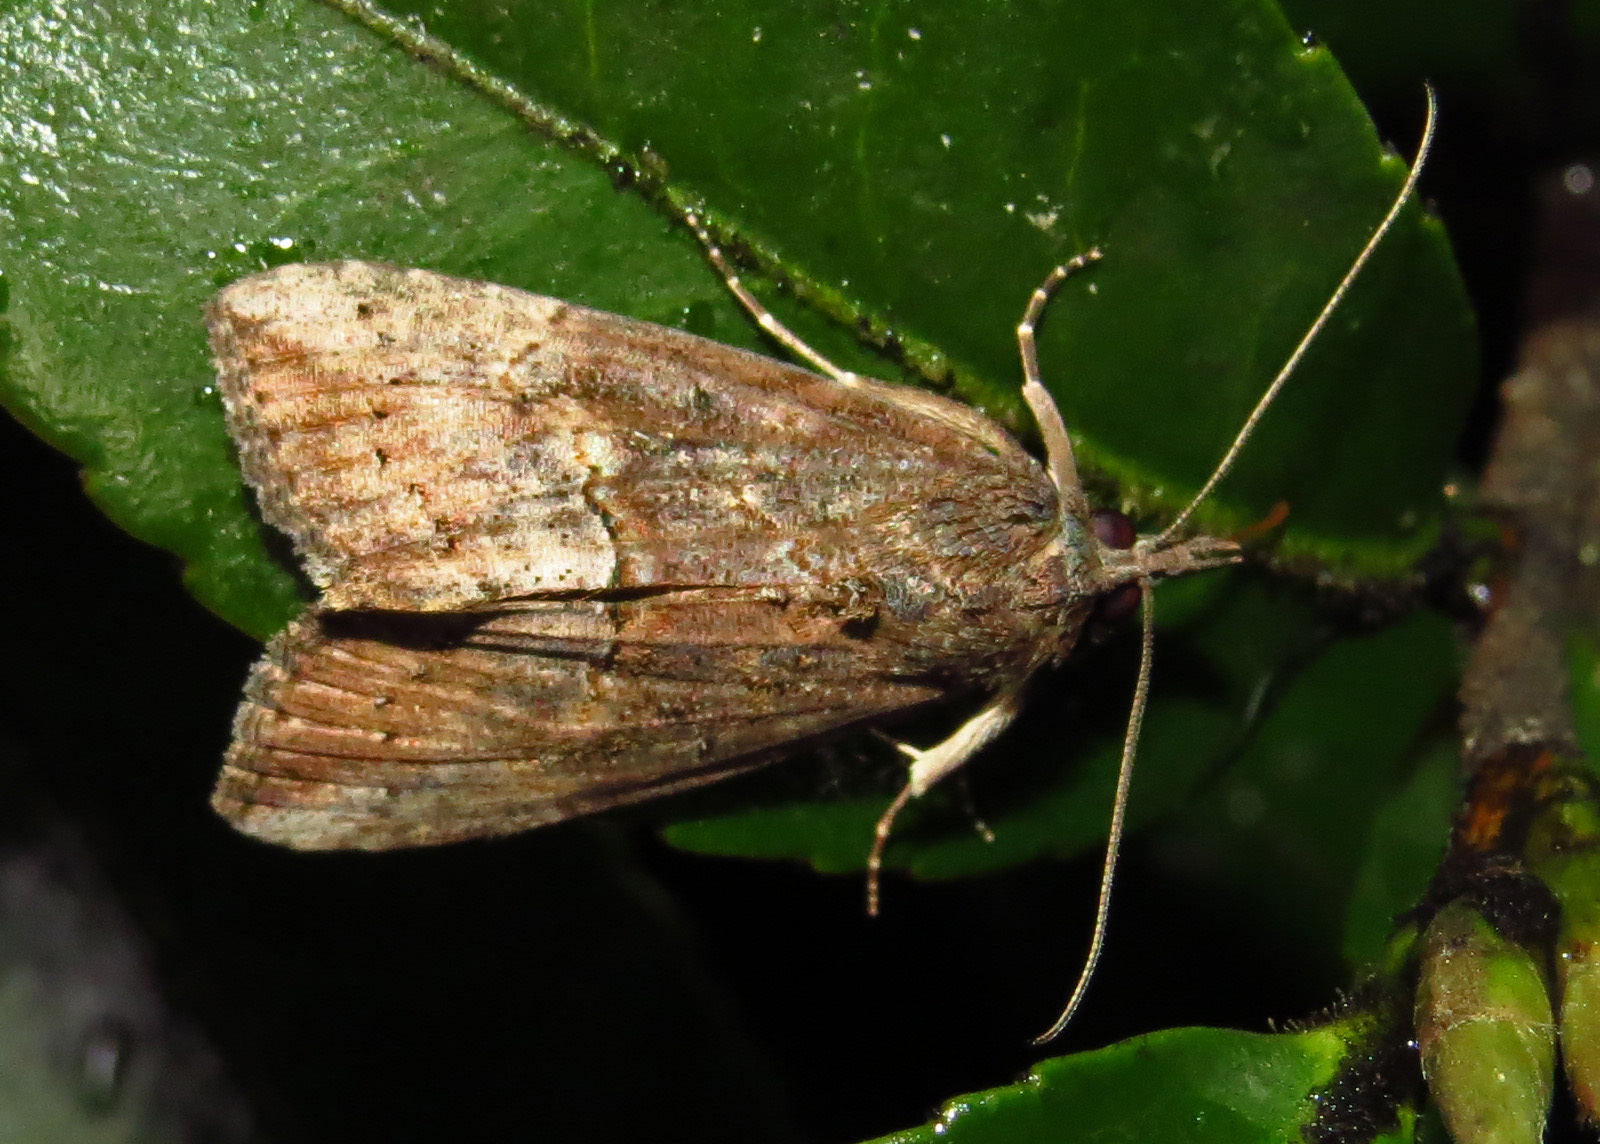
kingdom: Animalia
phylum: Arthropoda
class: Insecta
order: Lepidoptera
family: Erebidae
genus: Hypena
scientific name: Hypena scabra
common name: Green cloverworm
